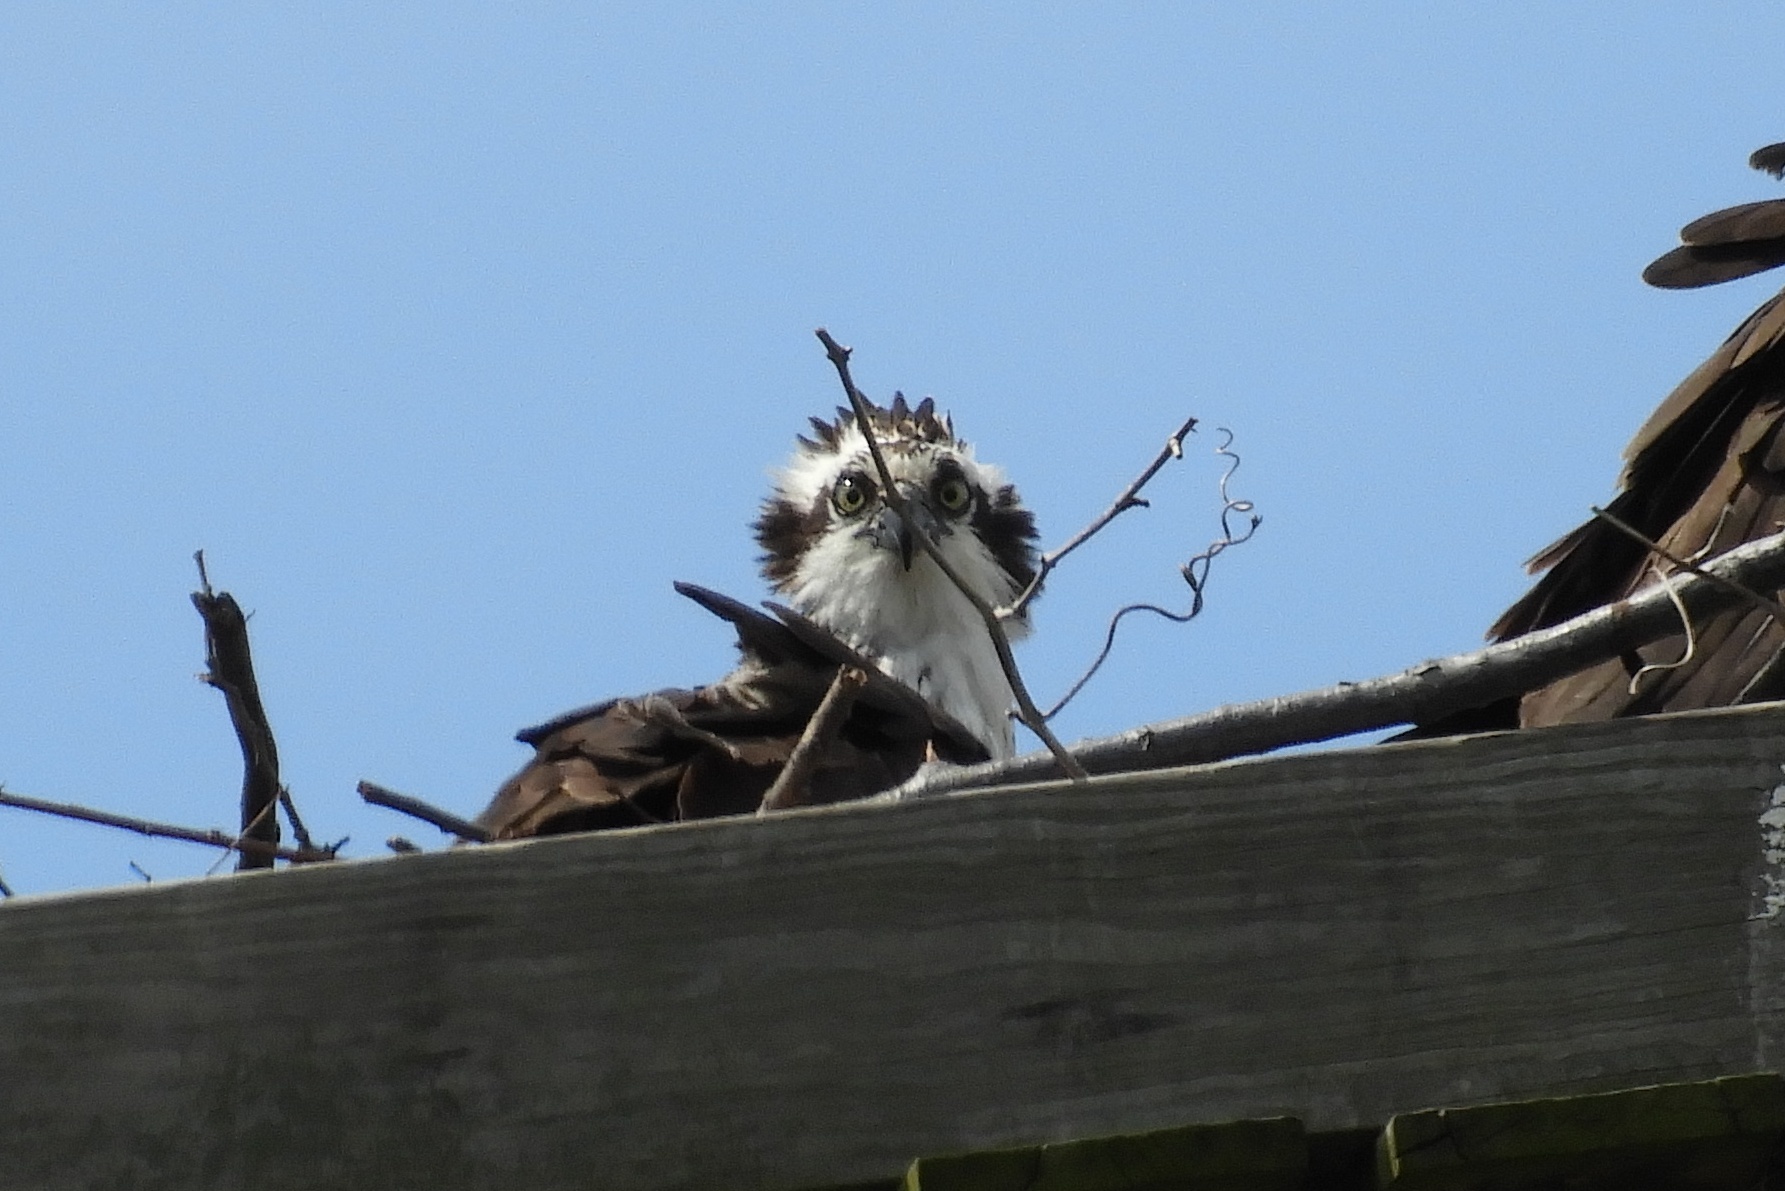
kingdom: Animalia
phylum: Chordata
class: Aves
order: Accipitriformes
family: Pandionidae
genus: Pandion
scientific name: Pandion haliaetus
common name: Osprey
